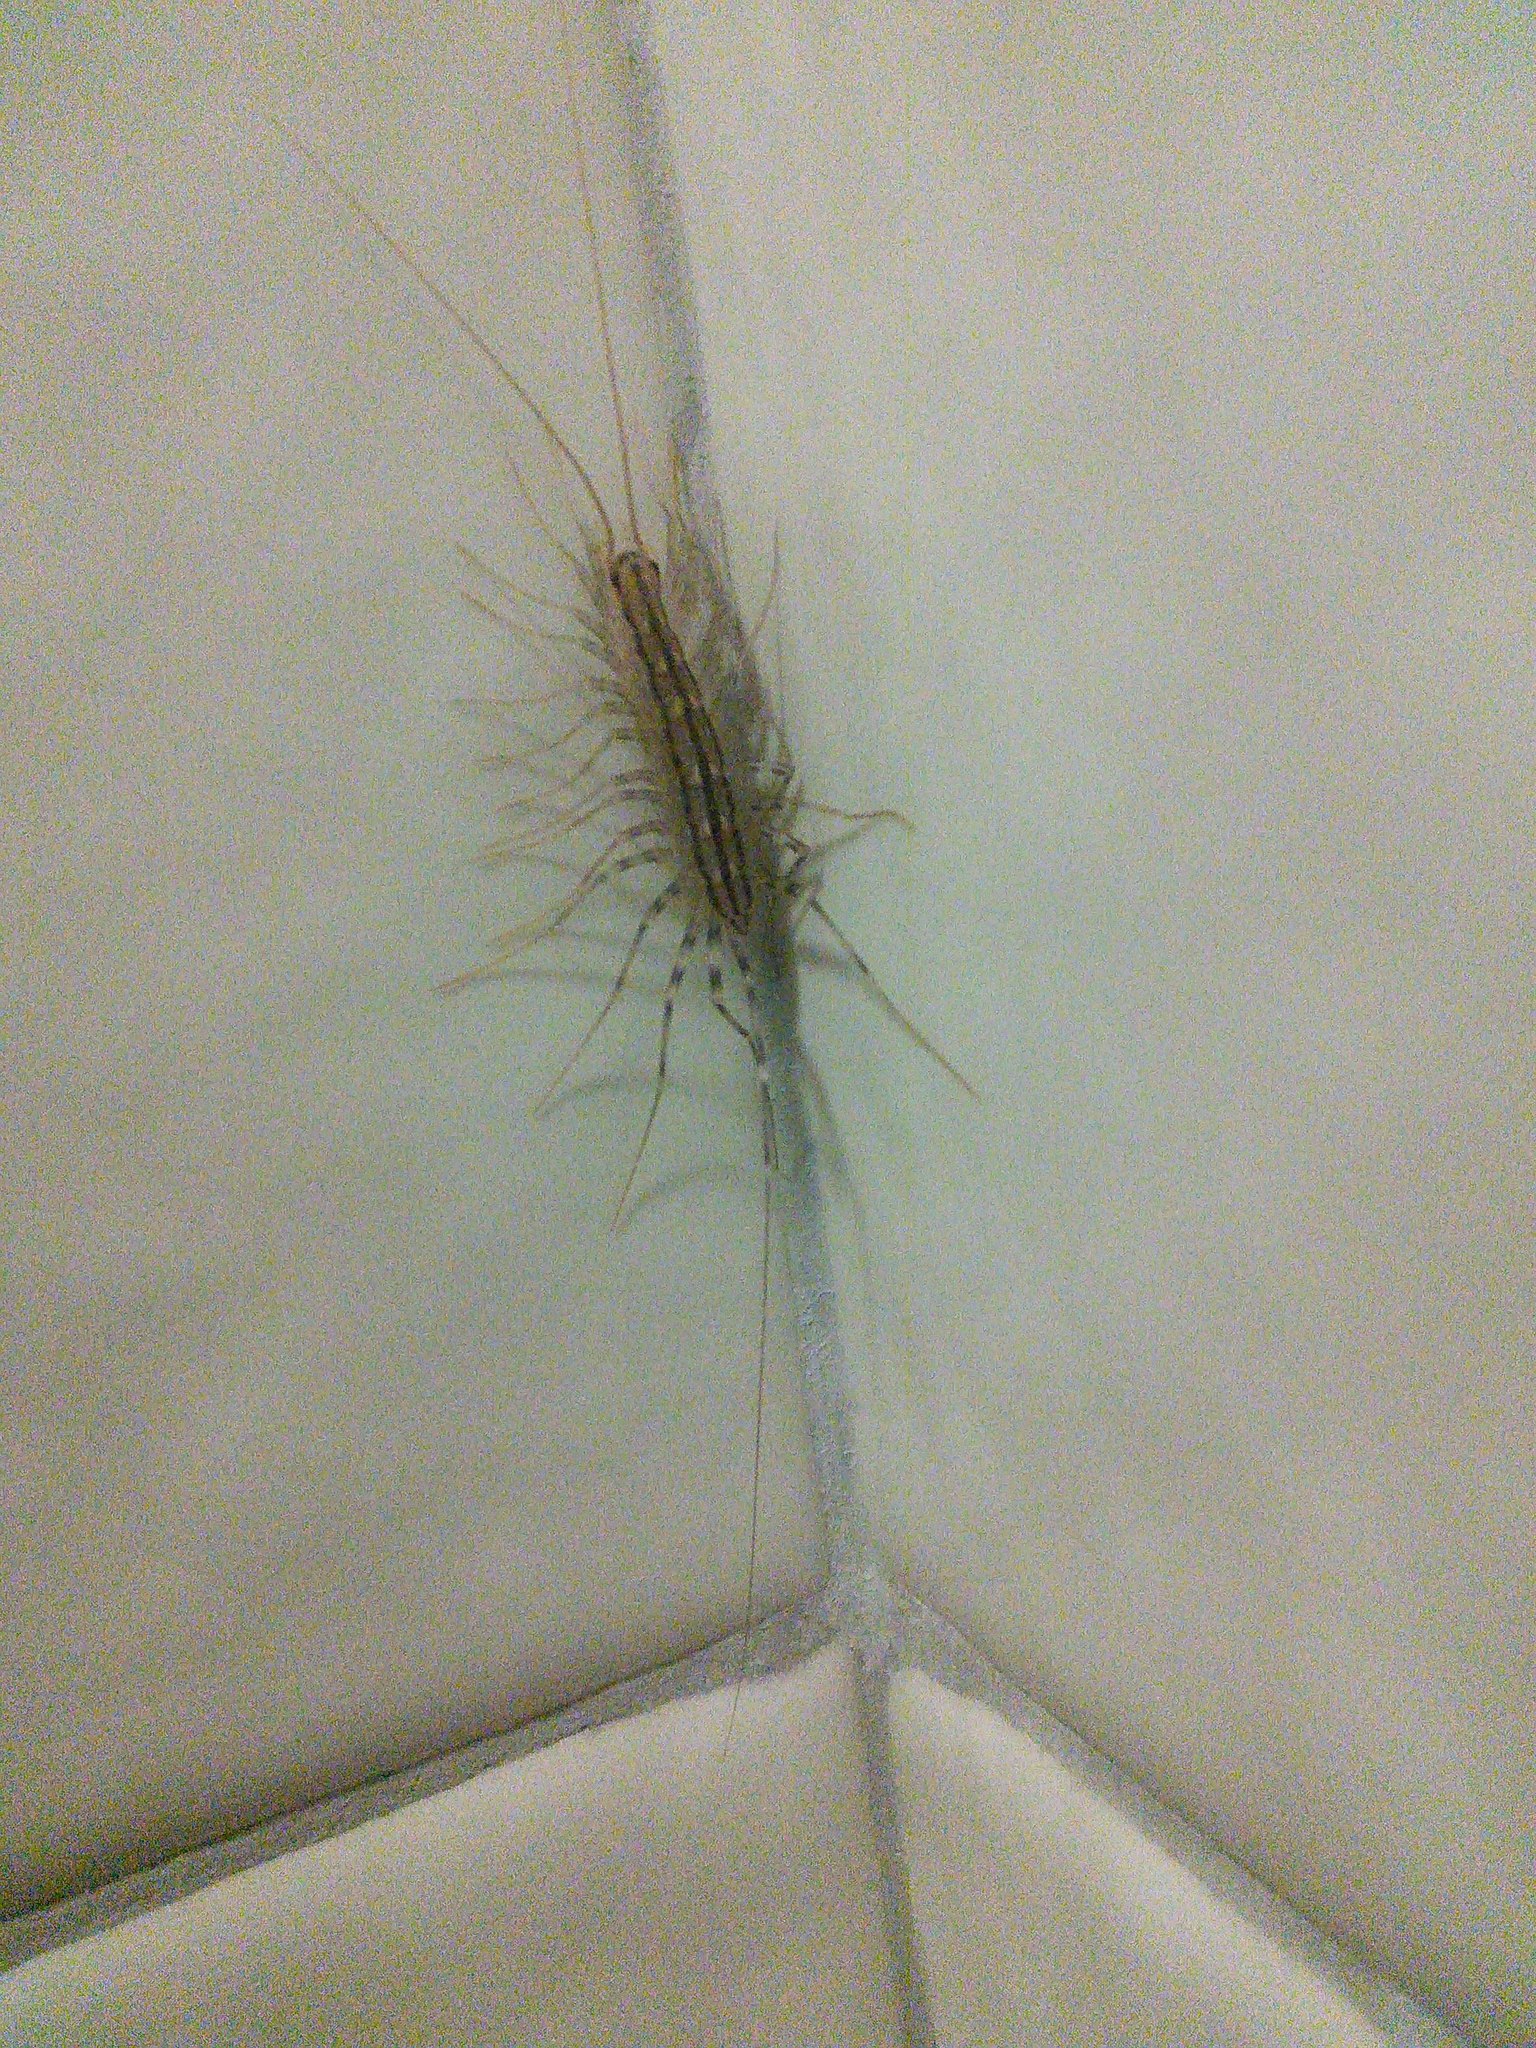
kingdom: Animalia
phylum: Arthropoda
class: Chilopoda
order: Scutigeromorpha
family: Scutigeridae
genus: Scutigera
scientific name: Scutigera coleoptrata
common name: House centipede
